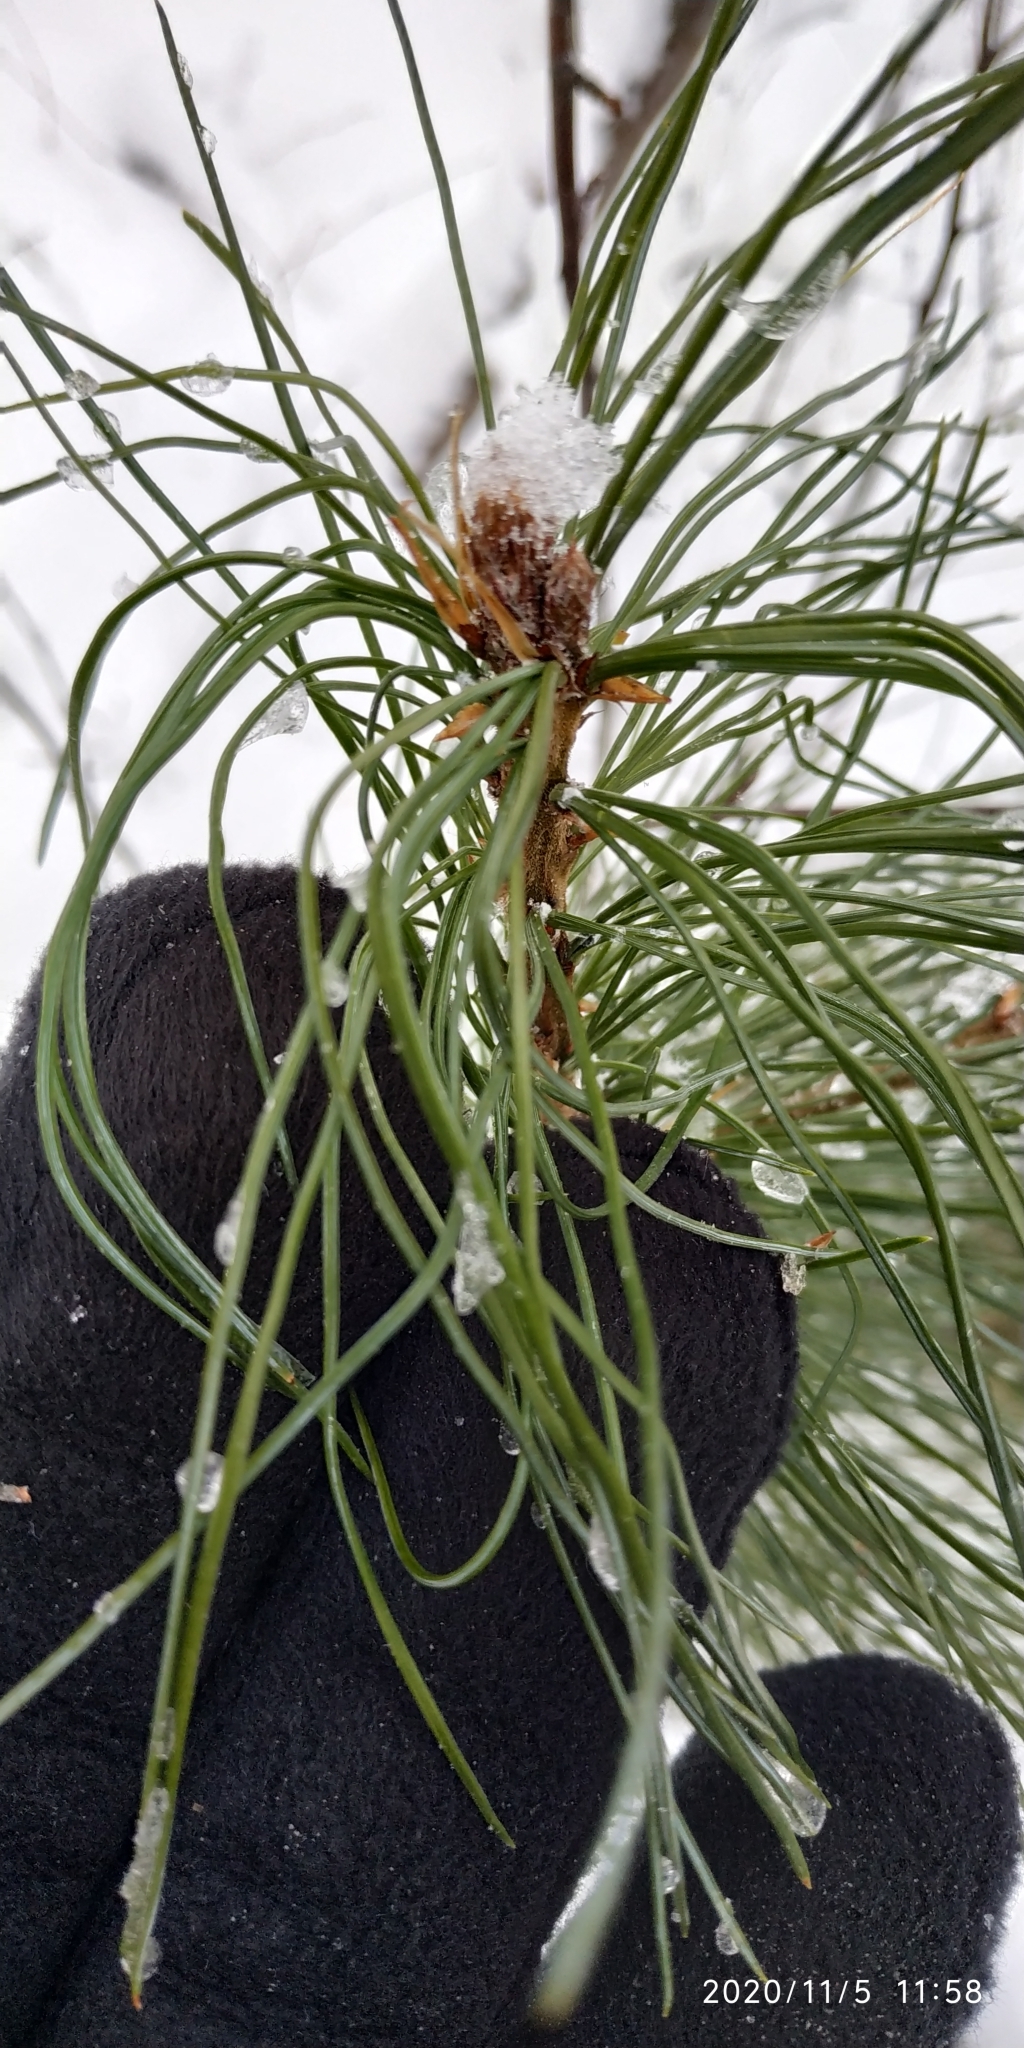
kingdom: Plantae
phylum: Tracheophyta
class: Pinopsida
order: Pinales
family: Pinaceae
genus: Pinus
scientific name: Pinus sibirica
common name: Siberian pine
